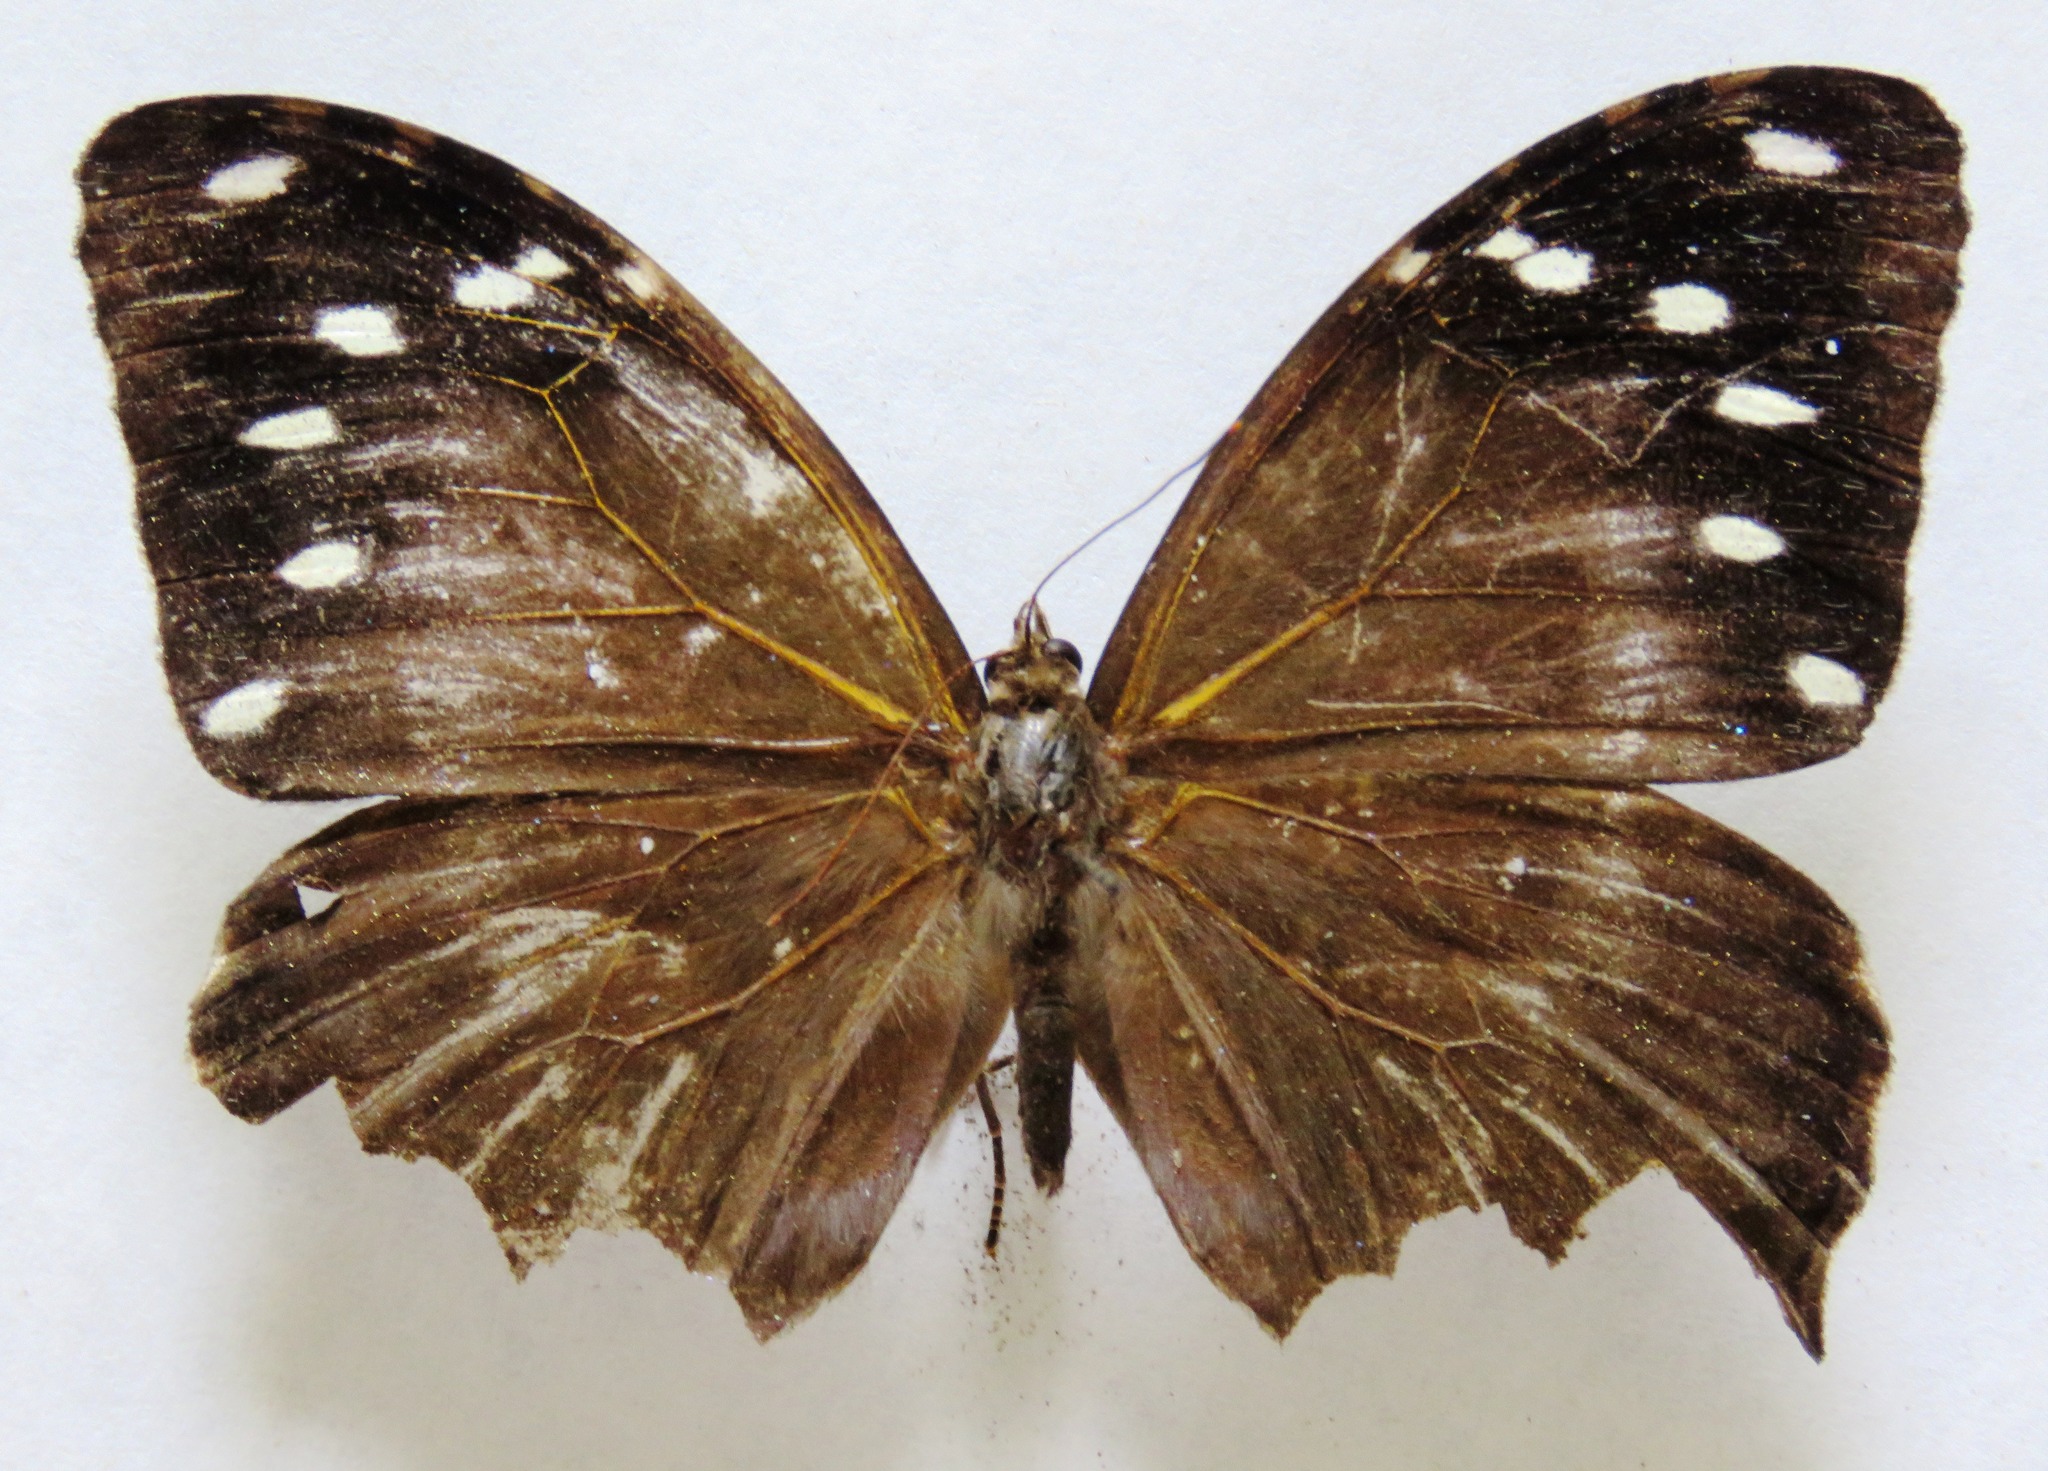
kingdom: Animalia
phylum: Arthropoda
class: Insecta
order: Lepidoptera
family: Nymphalidae
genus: Manataria
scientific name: Manataria maculata
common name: White-spotted satyr
